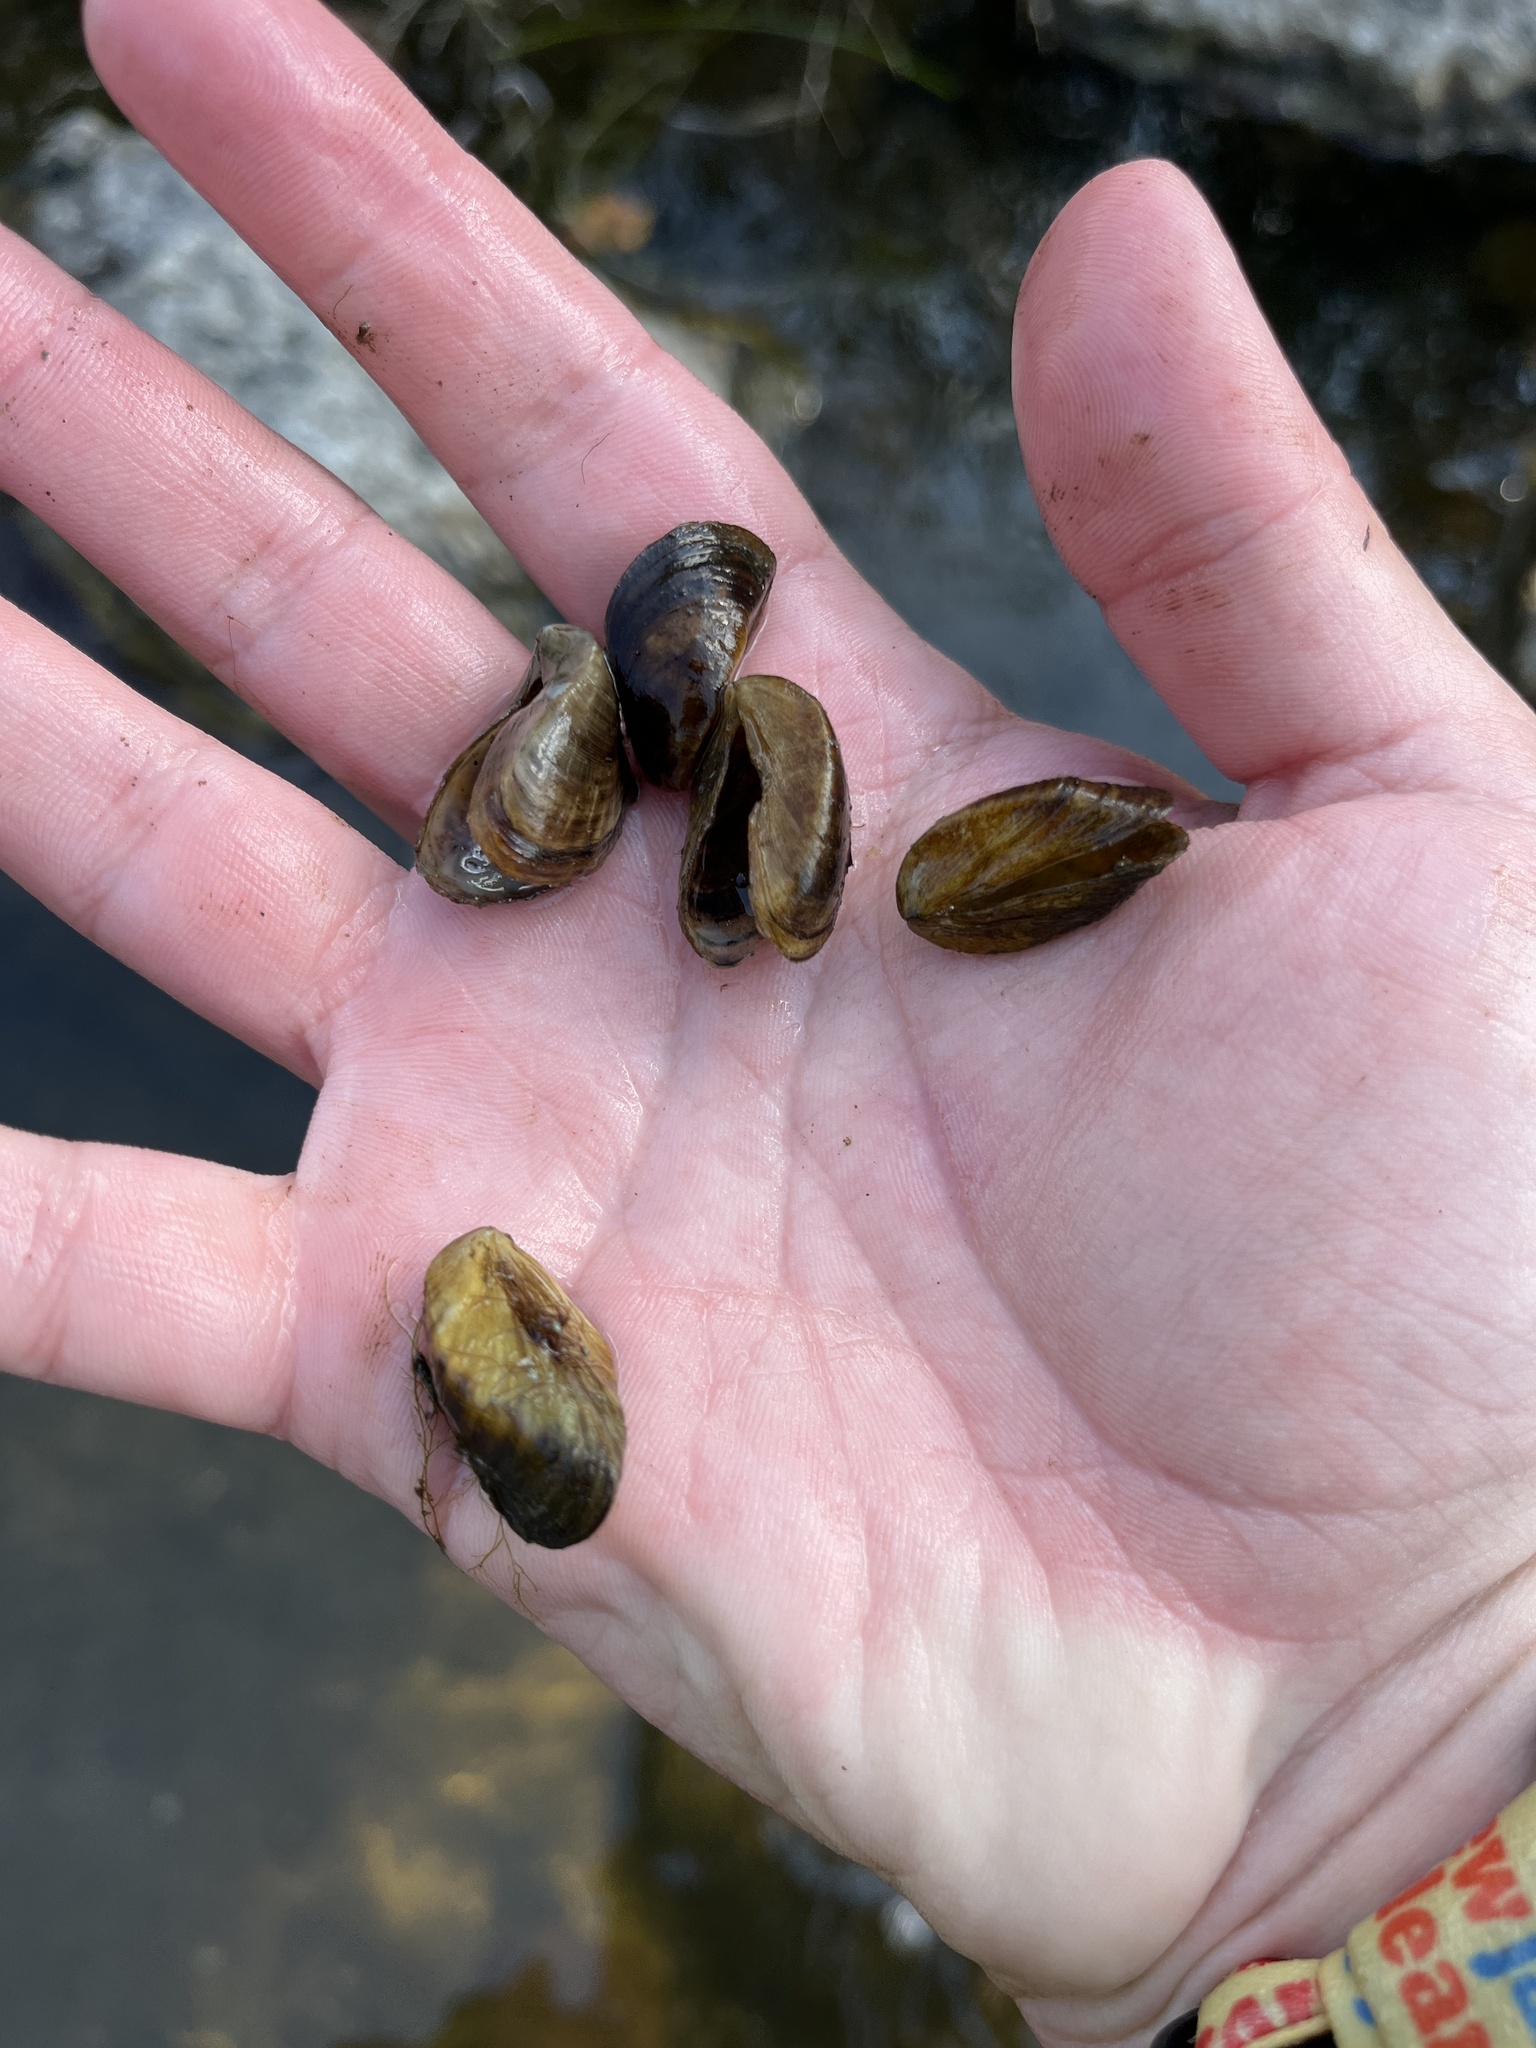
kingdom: Animalia
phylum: Mollusca
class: Bivalvia
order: Myida
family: Dreissenidae
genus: Dreissena
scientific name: Dreissena polymorpha
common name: Zebra mussel
